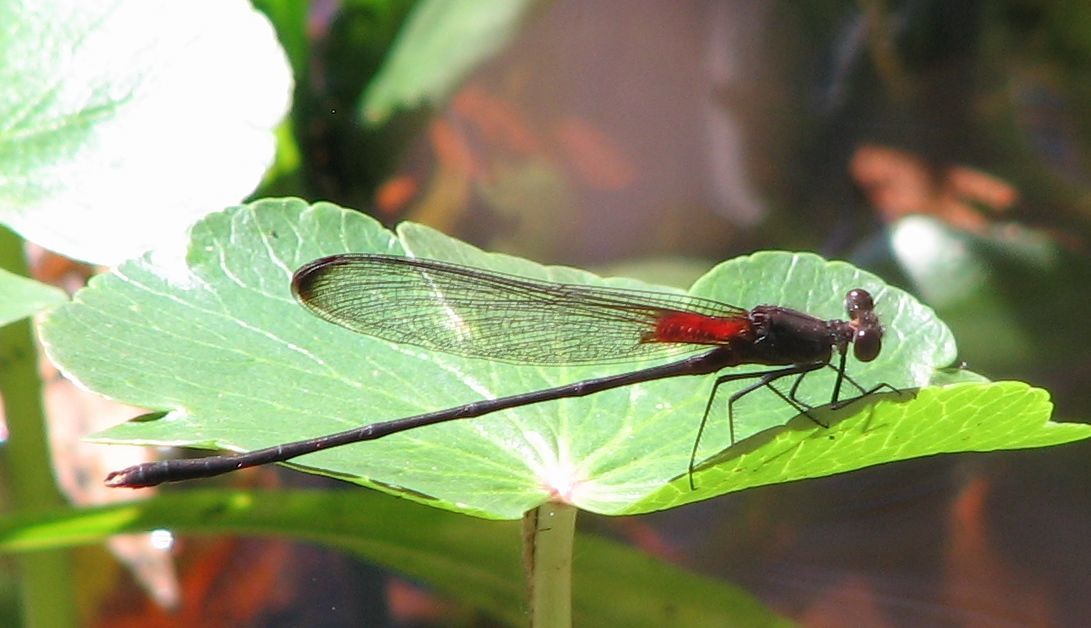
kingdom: Animalia
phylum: Arthropoda
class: Insecta
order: Odonata
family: Calopterygidae
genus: Hetaerina
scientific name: Hetaerina titia
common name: Smoky rubyspot
